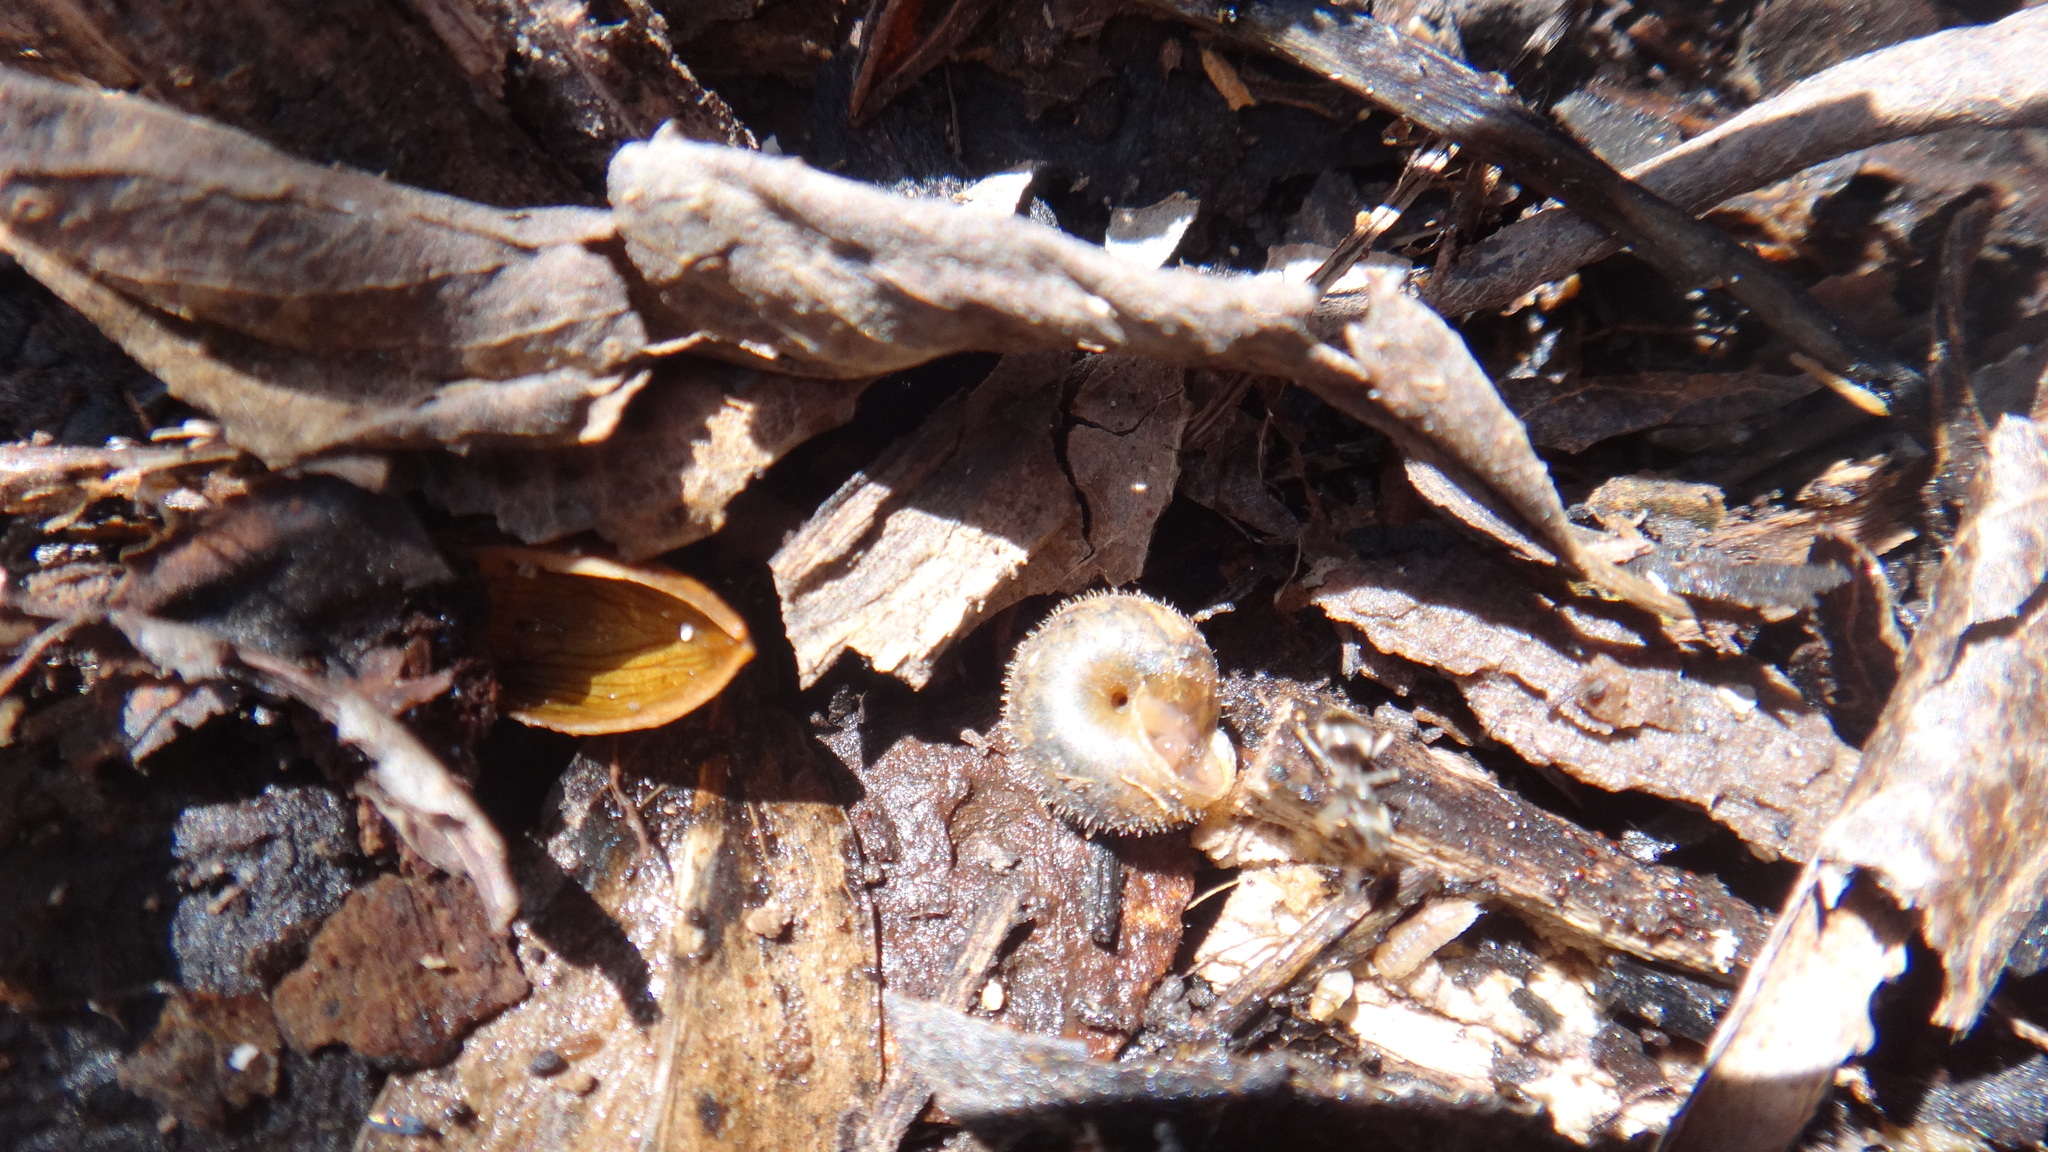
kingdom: Animalia
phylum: Mollusca
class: Gastropoda
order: Stylommatophora
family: Hygromiidae
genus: Pseudotrichia
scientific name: Pseudotrichia rubiginosa
